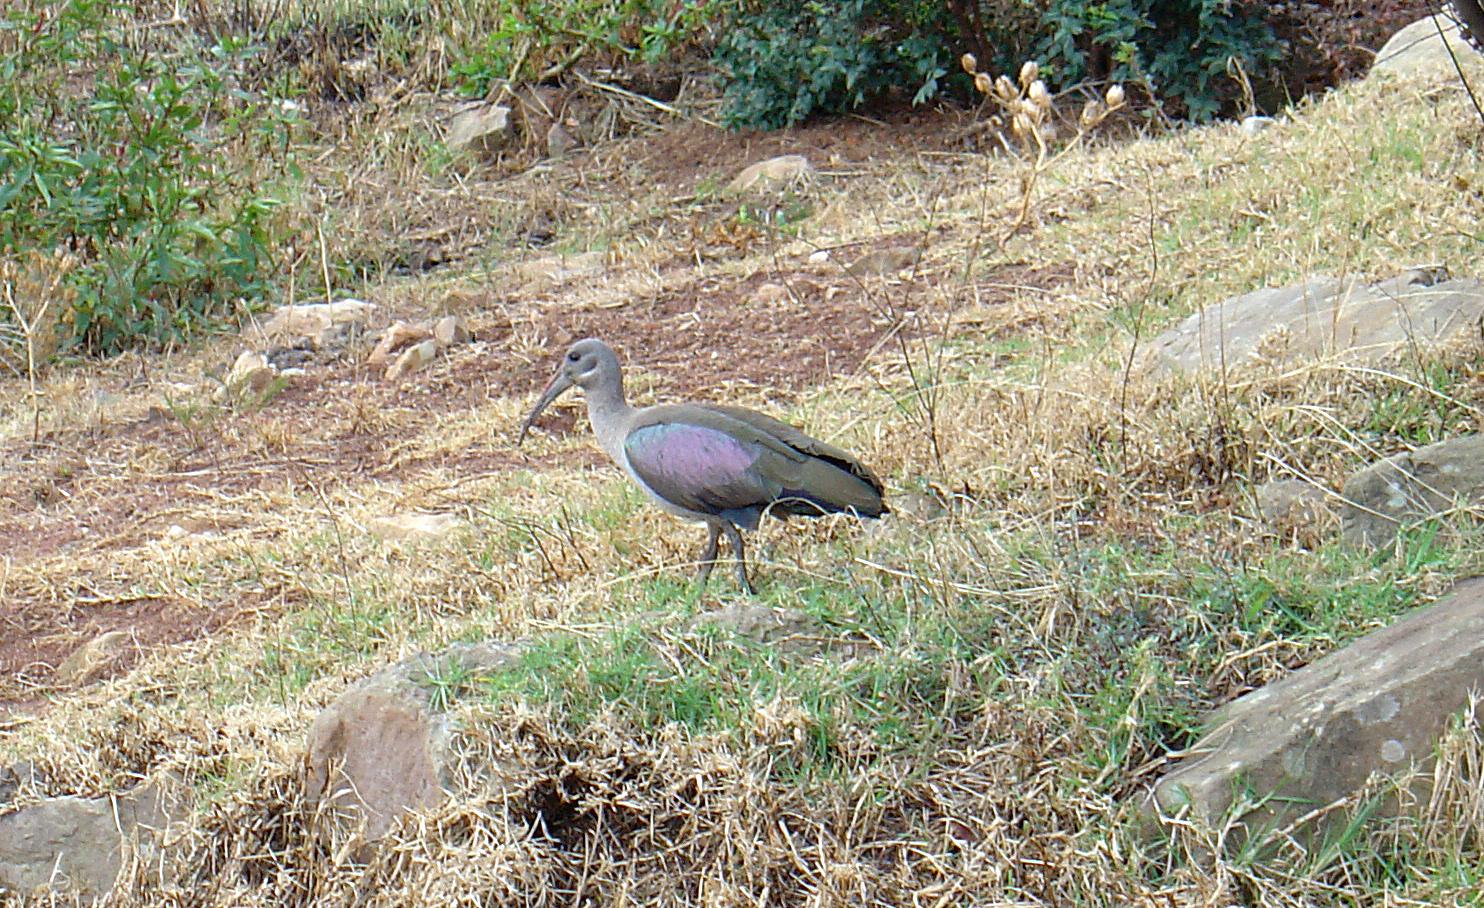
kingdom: Animalia
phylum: Chordata
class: Aves
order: Pelecaniformes
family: Threskiornithidae
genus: Bostrychia
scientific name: Bostrychia hagedash
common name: Hadada ibis
